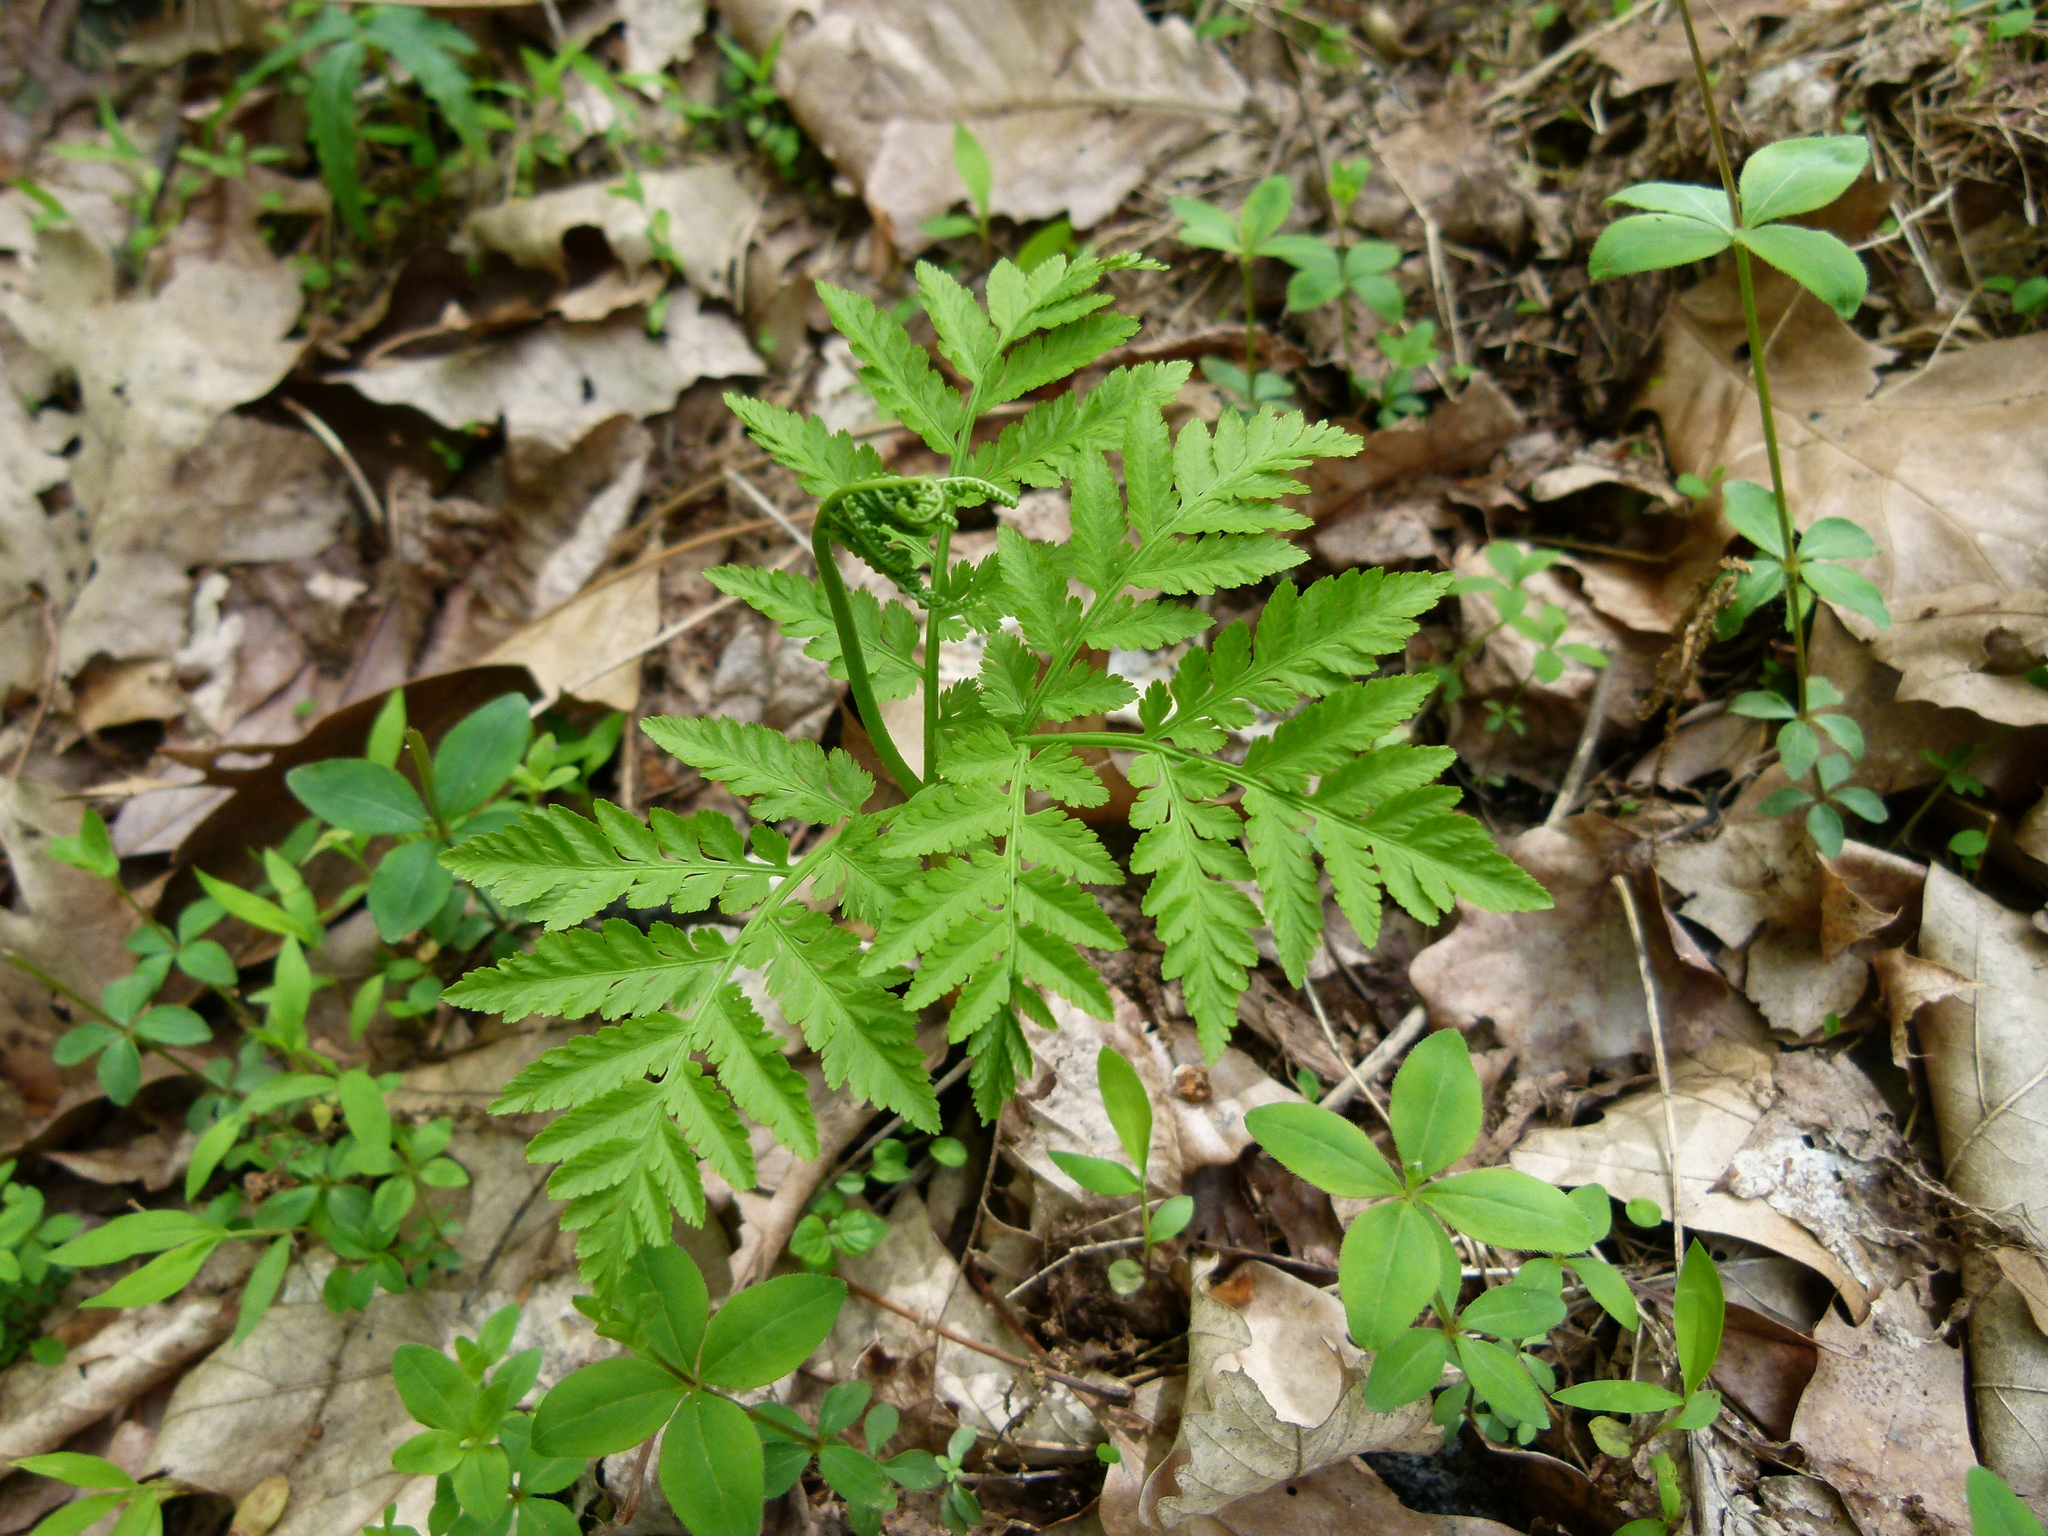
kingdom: Plantae
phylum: Tracheophyta
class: Polypodiopsida
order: Ophioglossales
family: Ophioglossaceae
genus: Botrypus
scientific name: Botrypus virginianus
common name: Common grapefern
